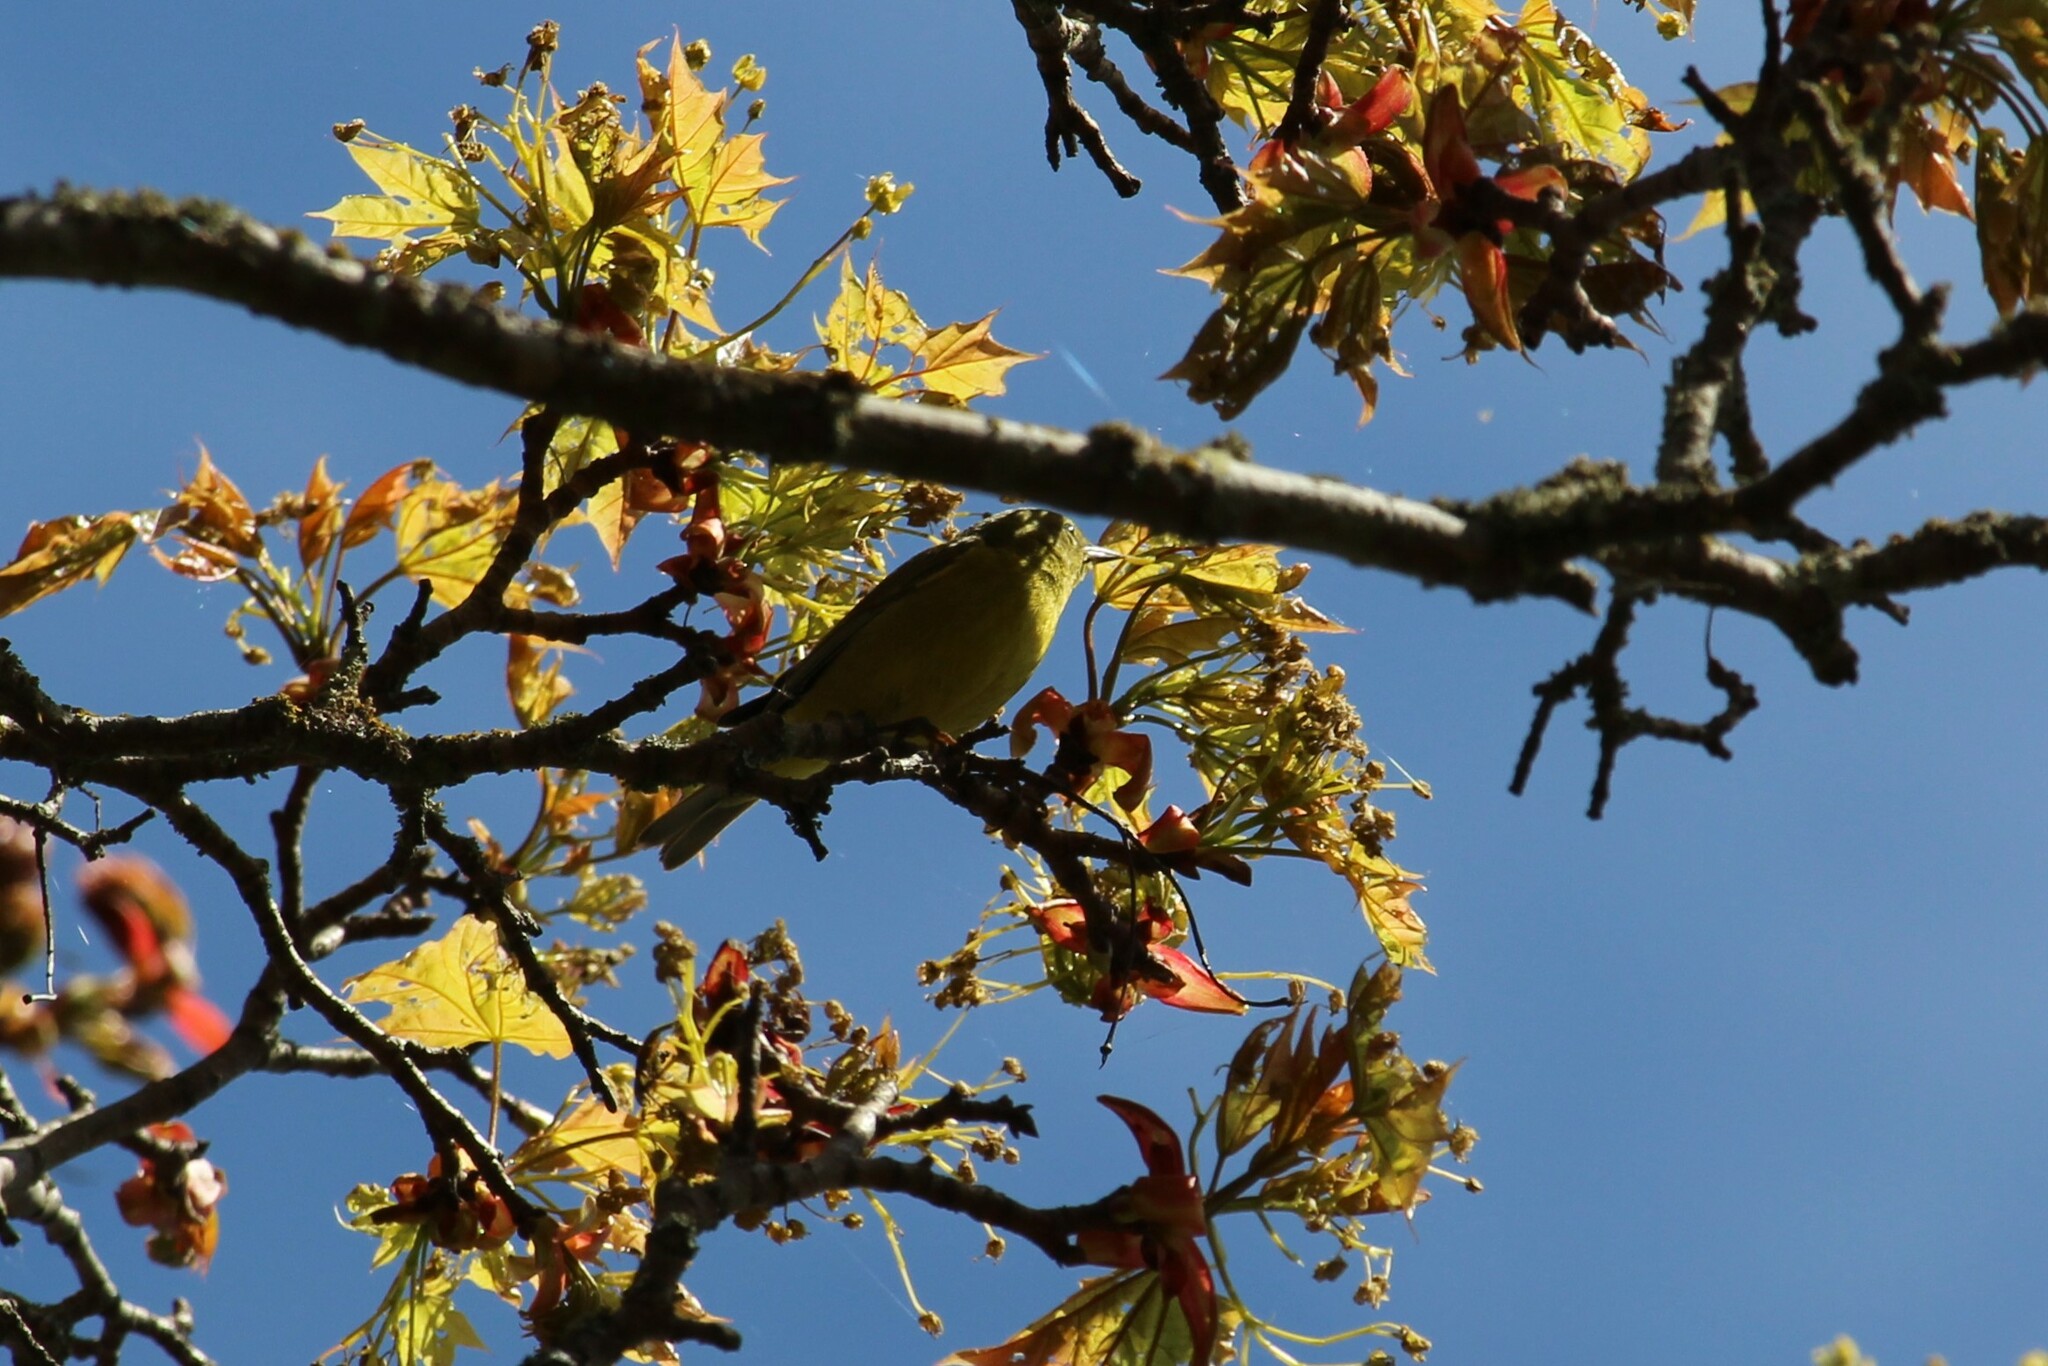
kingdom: Animalia
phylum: Chordata
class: Aves
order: Passeriformes
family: Parulidae
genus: Leiothlypis
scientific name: Leiothlypis celata
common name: Orange-crowned warbler
